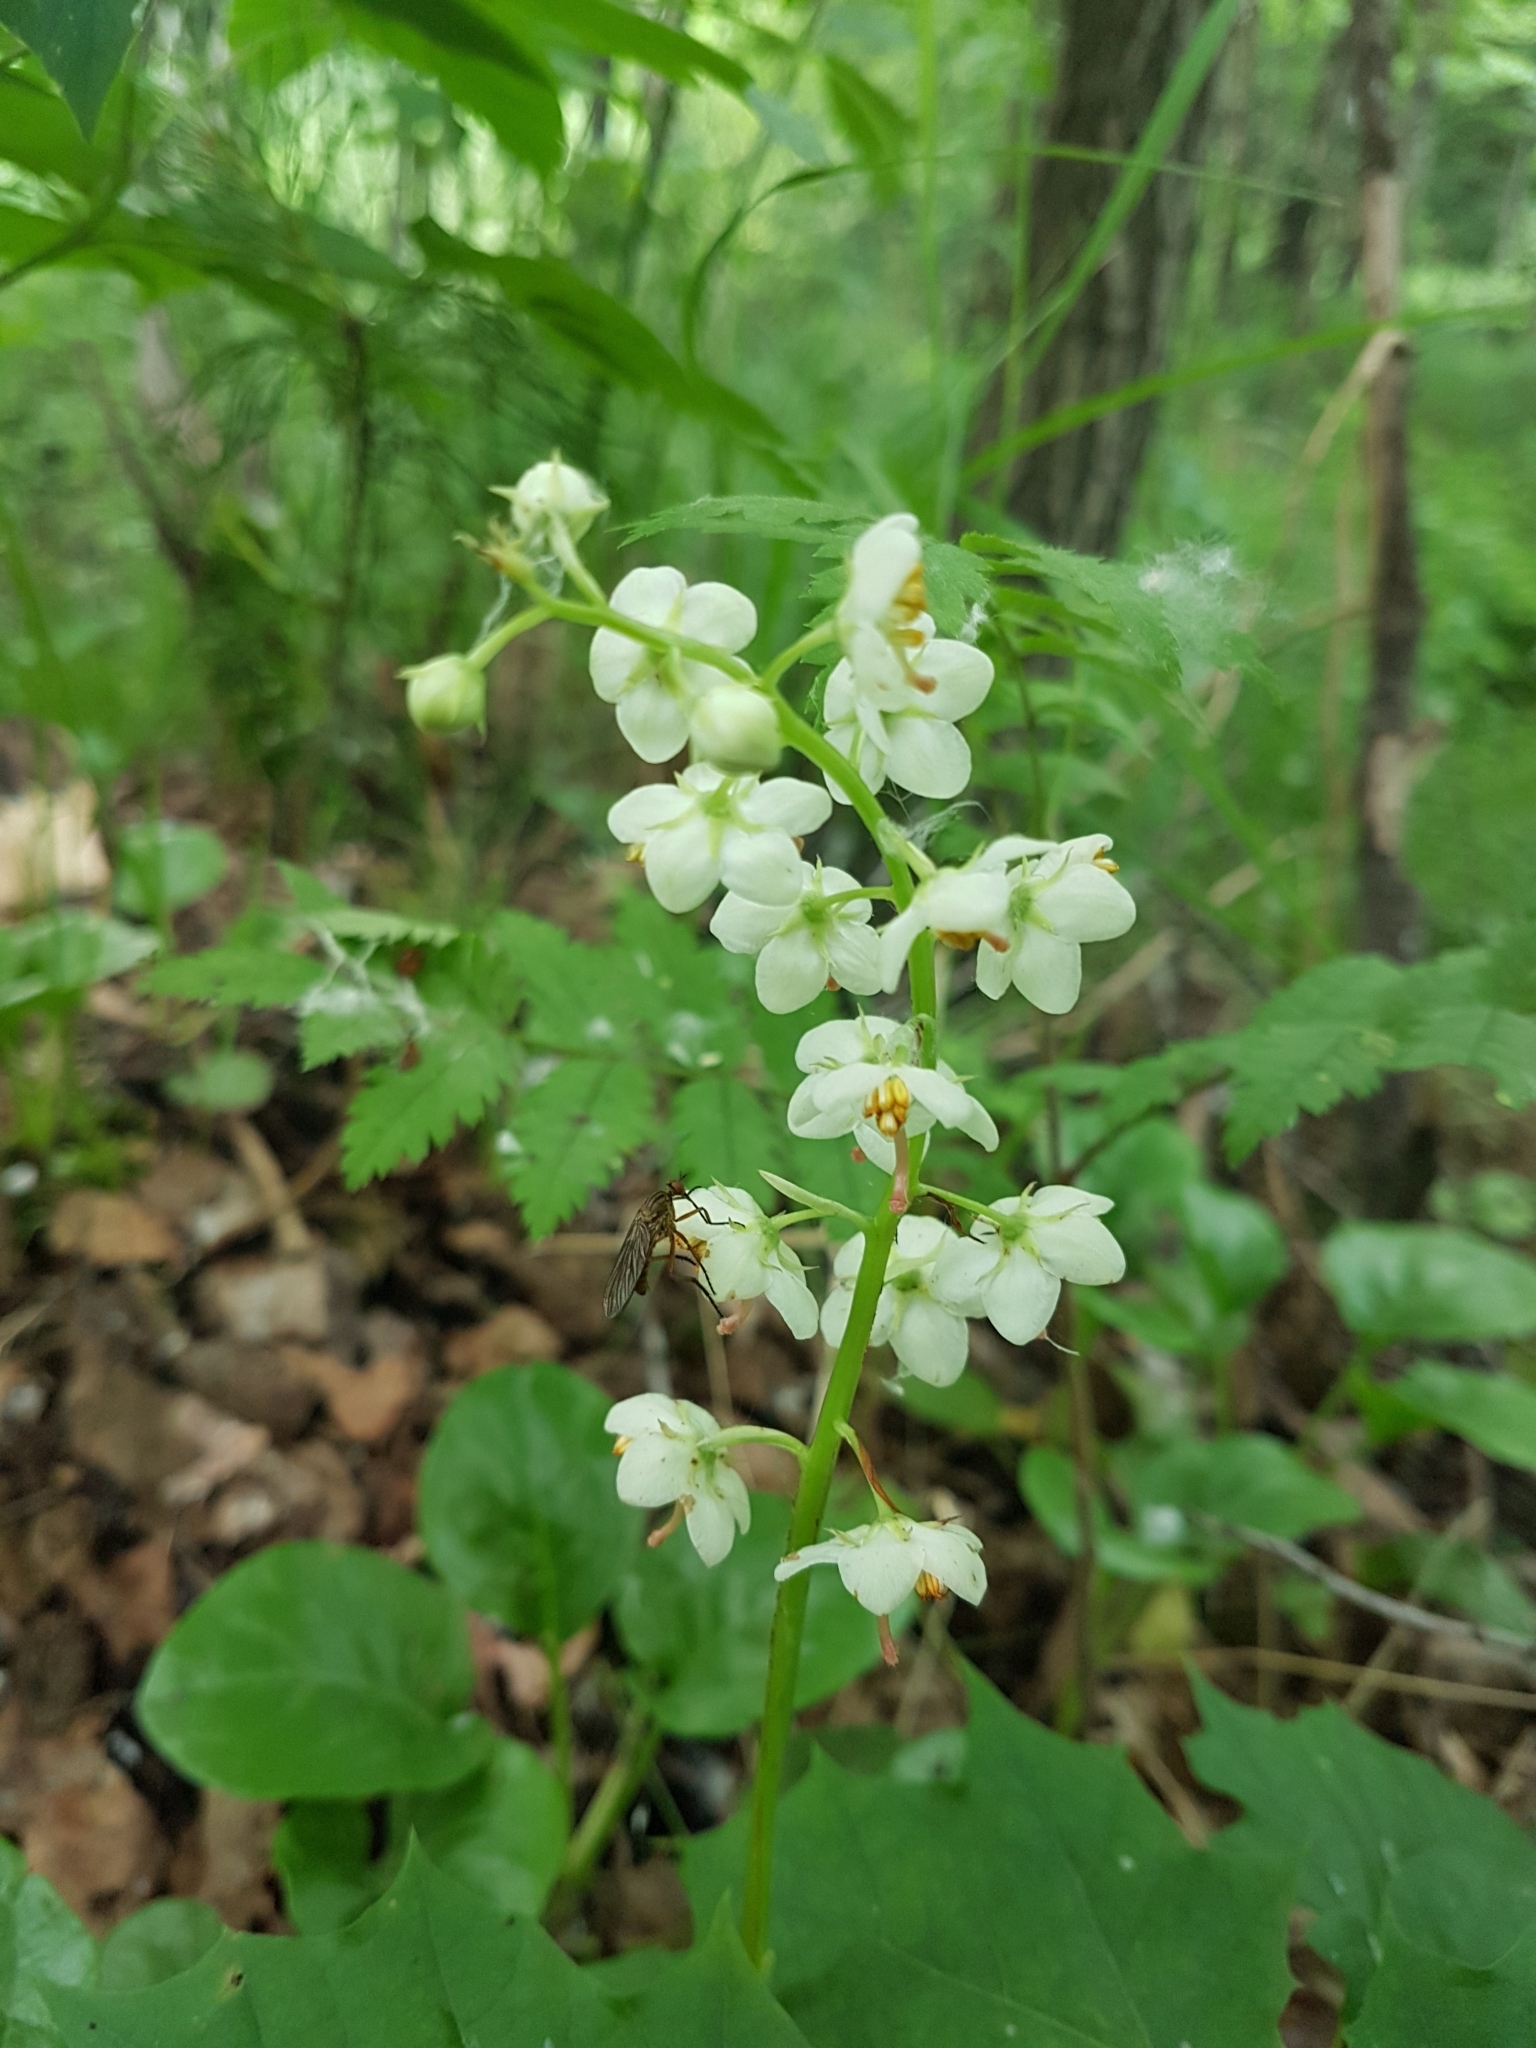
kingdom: Plantae
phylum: Tracheophyta
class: Magnoliopsida
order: Ericales
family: Ericaceae
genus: Pyrola
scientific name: Pyrola rotundifolia
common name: Round-leaved wintergreen
